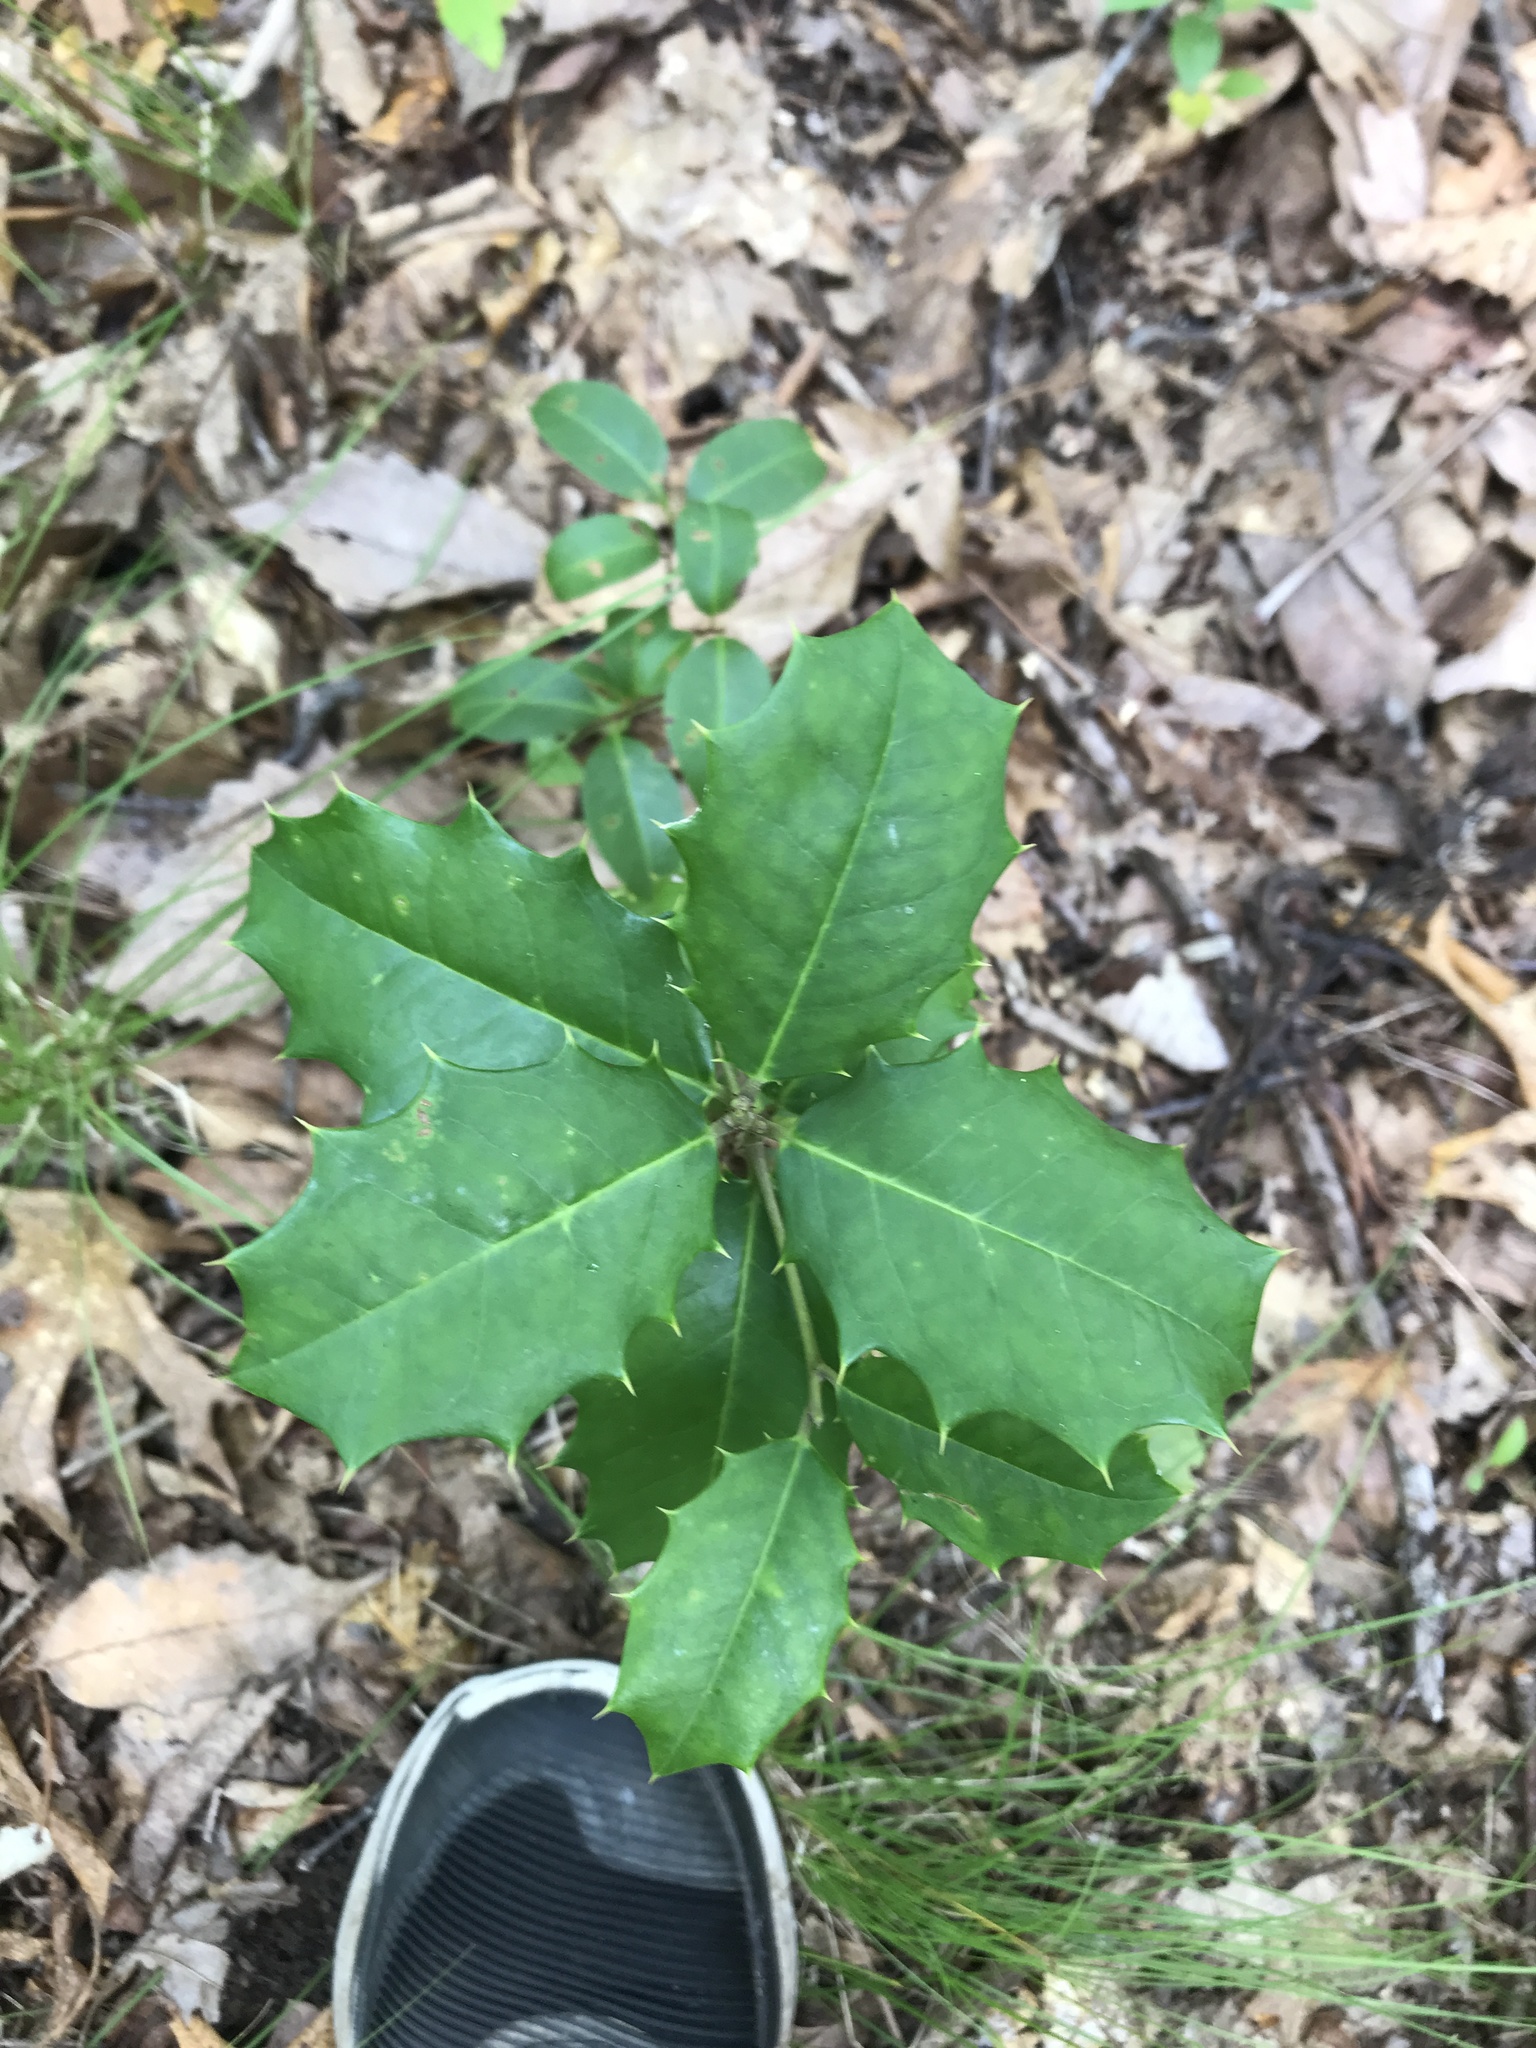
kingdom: Plantae
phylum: Tracheophyta
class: Magnoliopsida
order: Aquifoliales
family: Aquifoliaceae
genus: Ilex
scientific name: Ilex opaca
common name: American holly
